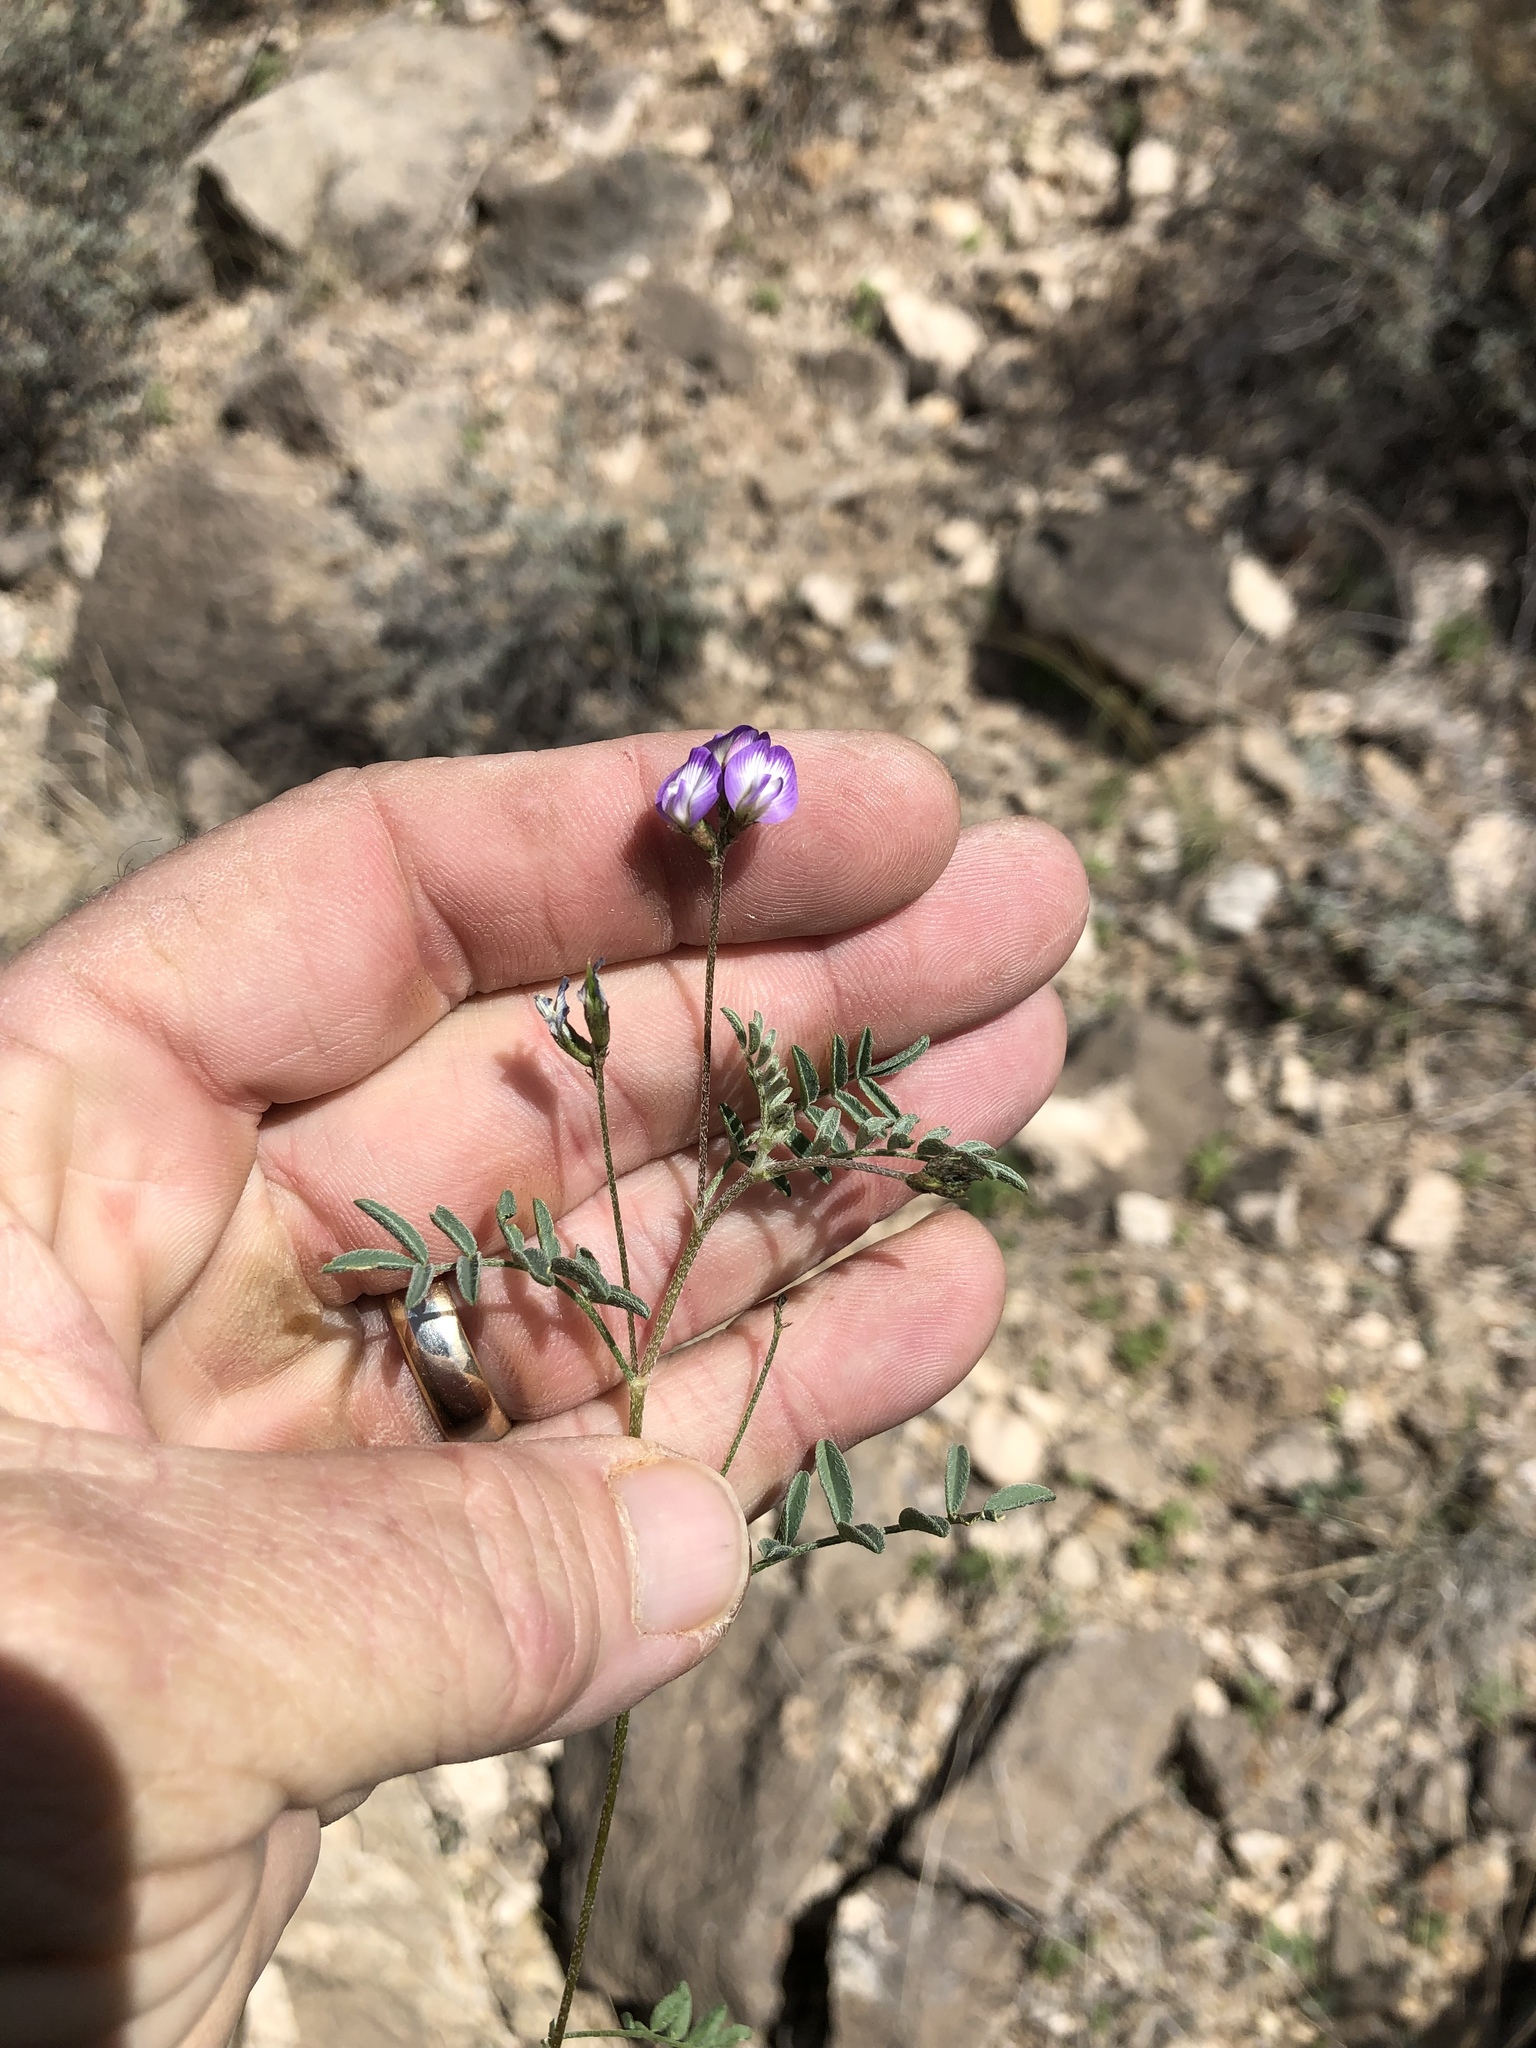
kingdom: Plantae
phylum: Tracheophyta
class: Magnoliopsida
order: Fabales
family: Fabaceae
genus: Astragalus
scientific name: Astragalus nuttallianus
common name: Smallflowered milkvetch
